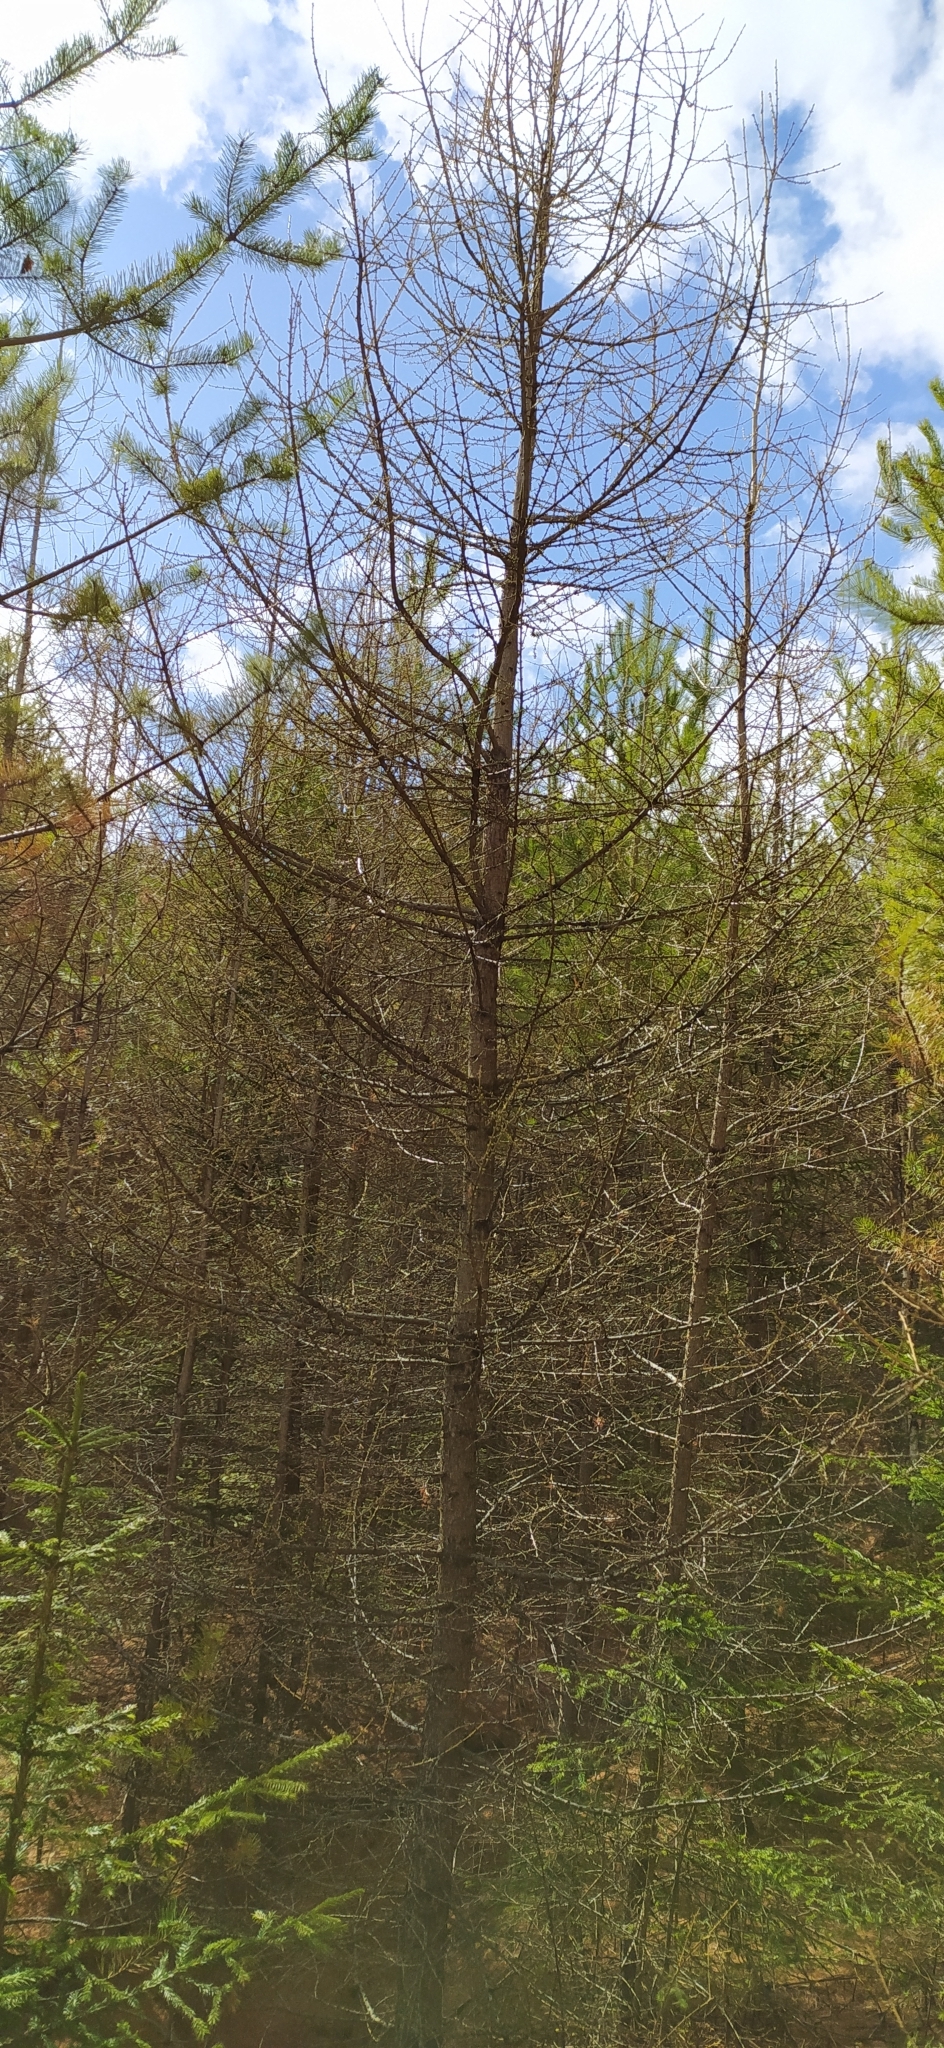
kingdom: Plantae
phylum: Tracheophyta
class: Pinopsida
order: Pinales
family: Pinaceae
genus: Larix
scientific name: Larix sibirica
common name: Siberian larch
